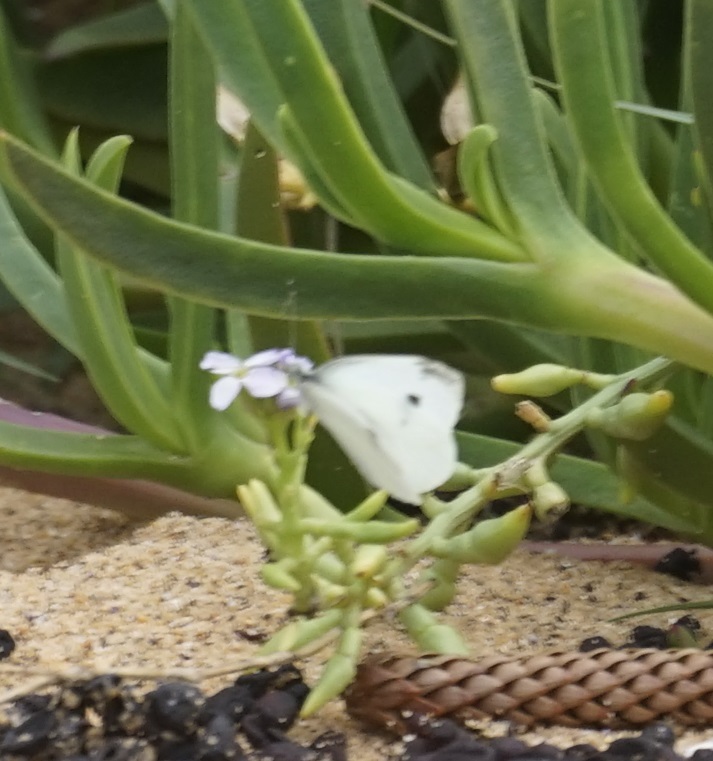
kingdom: Animalia
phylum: Arthropoda
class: Insecta
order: Lepidoptera
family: Pieridae
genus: Pieris
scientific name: Pieris rapae
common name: Small white
